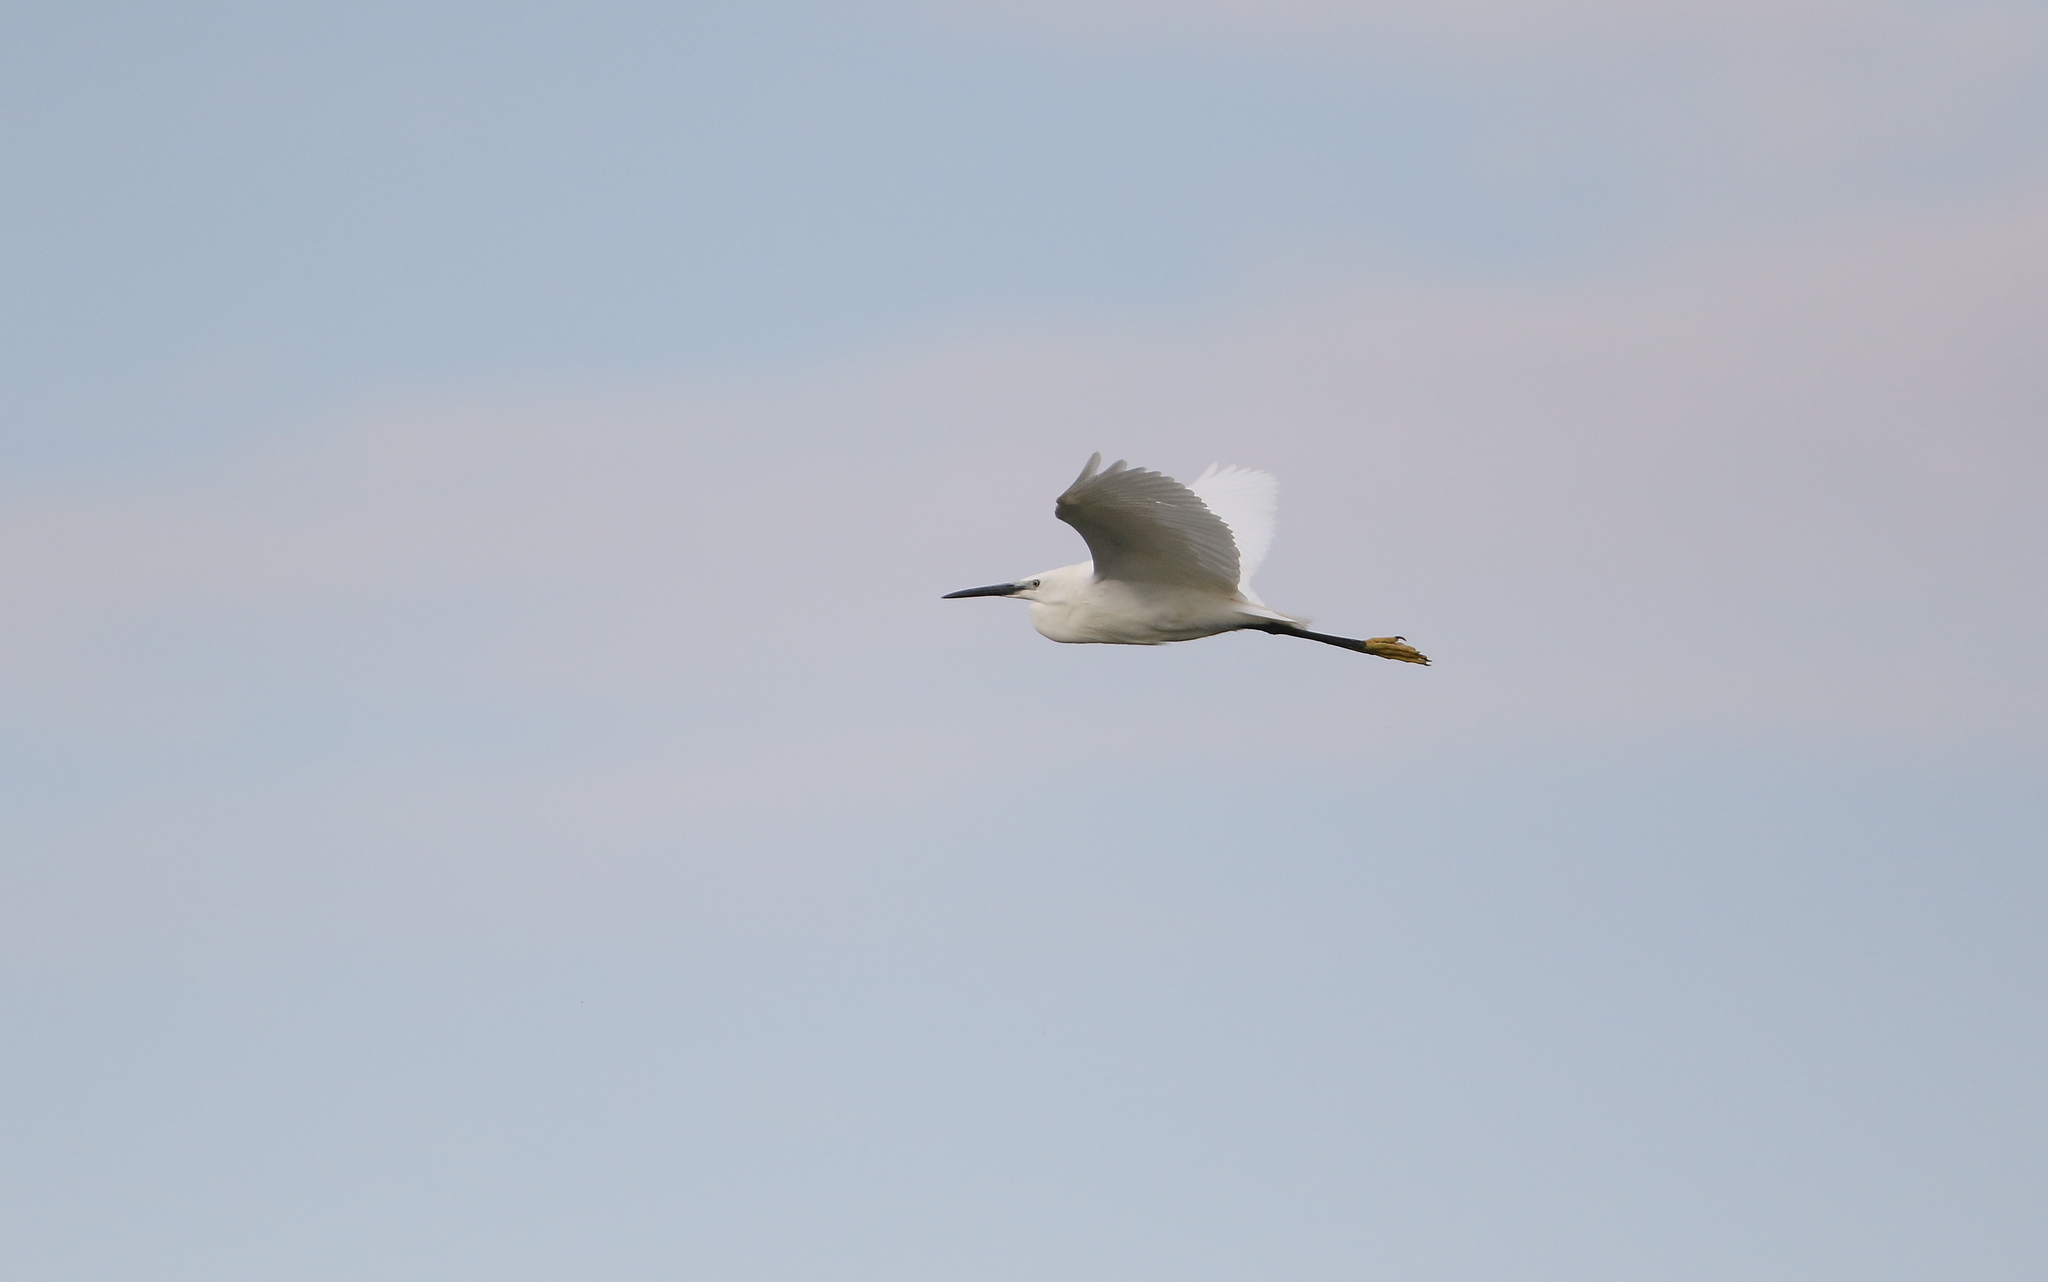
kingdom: Animalia
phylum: Chordata
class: Aves
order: Pelecaniformes
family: Ardeidae
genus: Egretta
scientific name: Egretta garzetta
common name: Little egret
